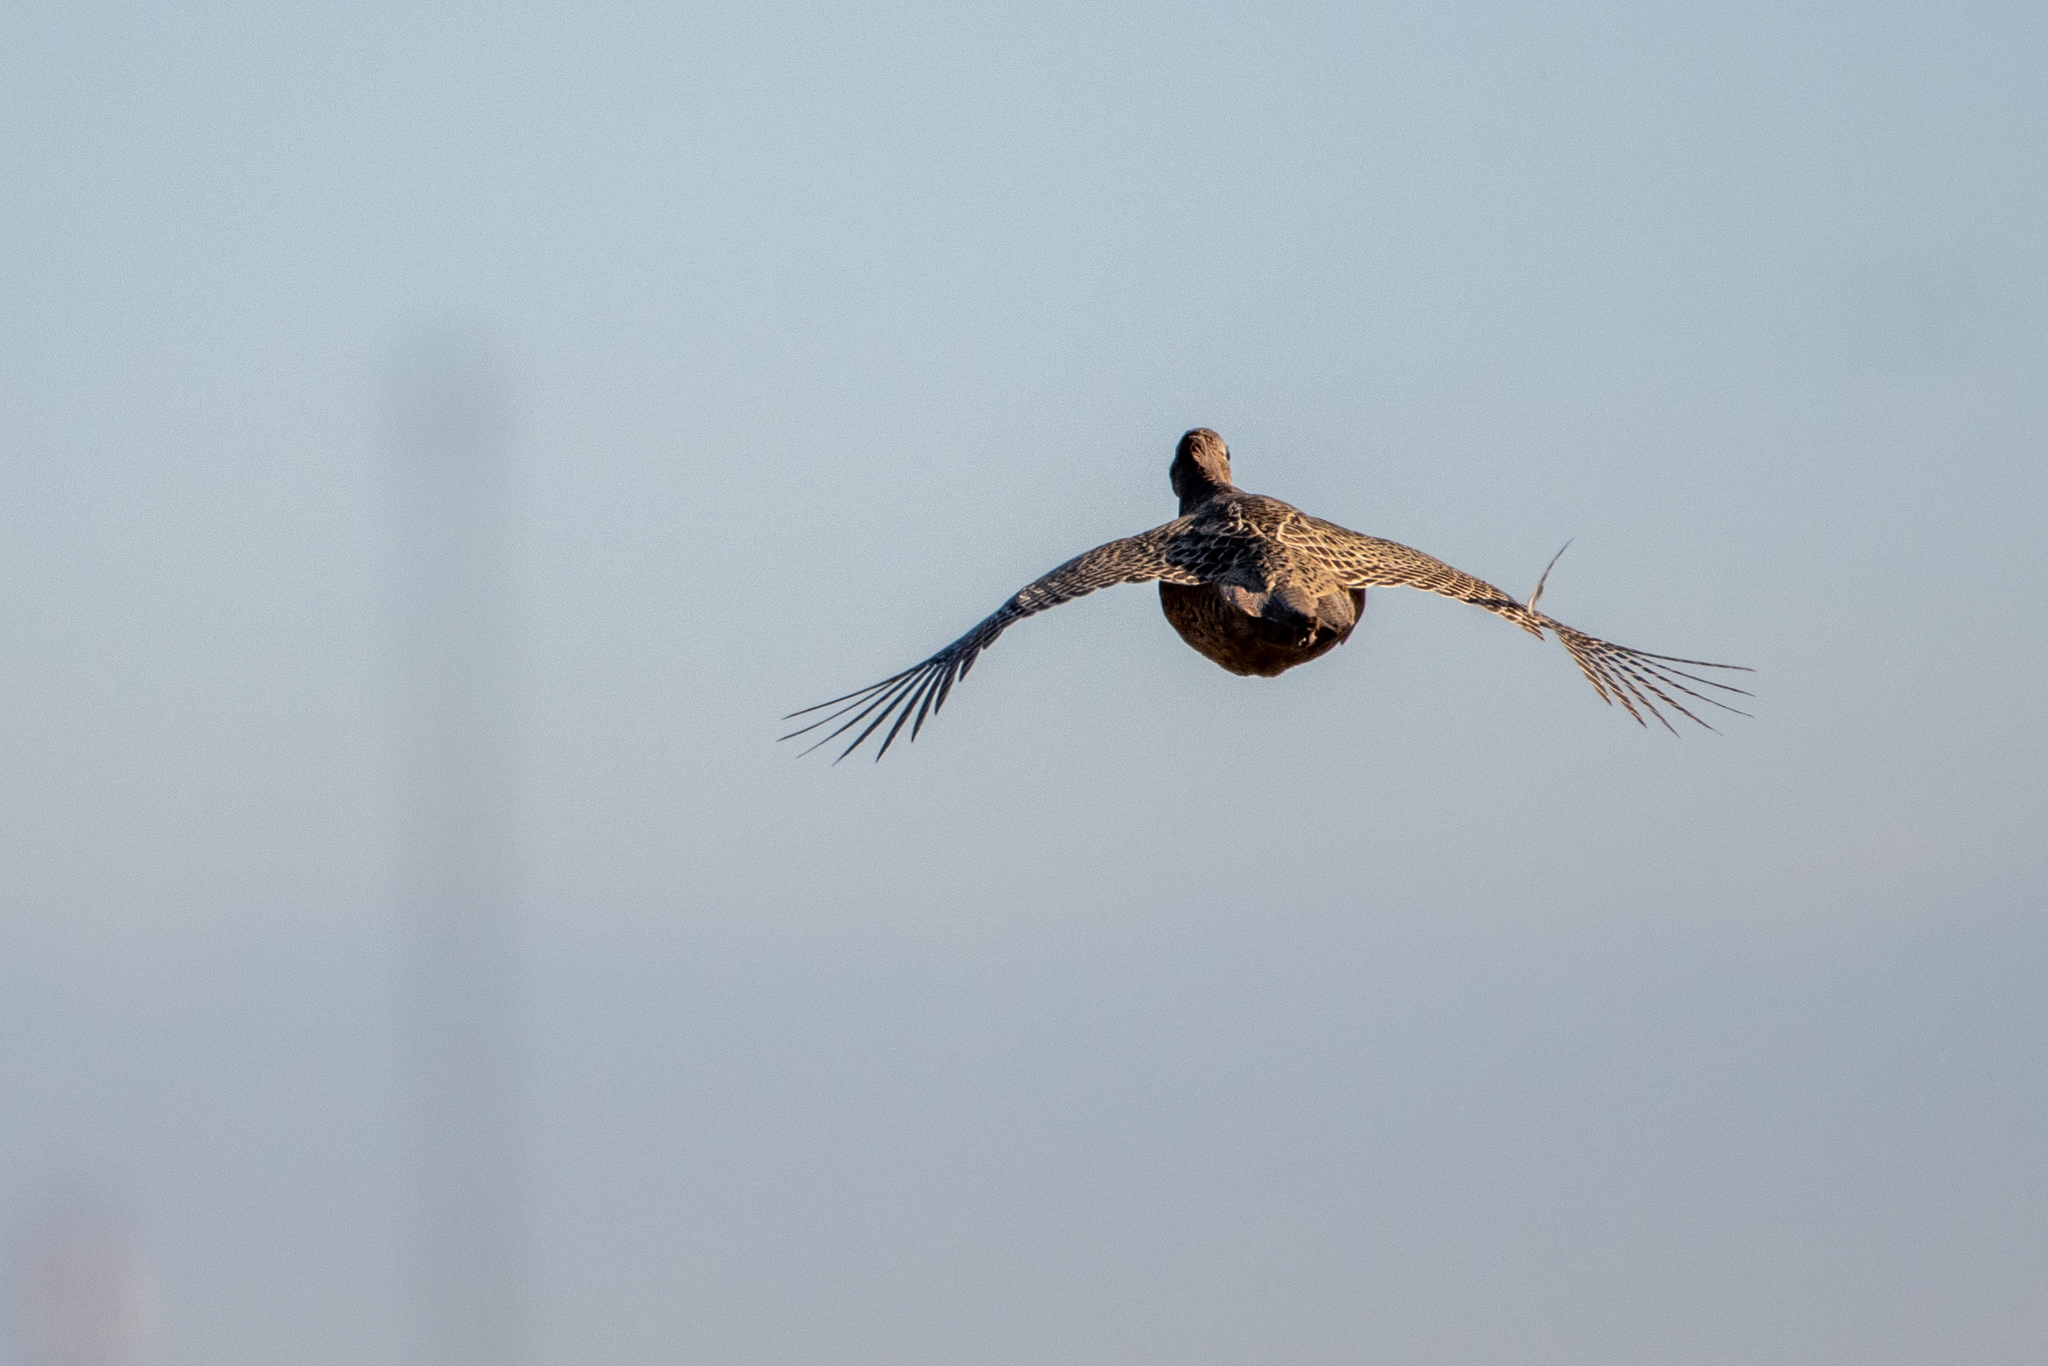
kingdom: Animalia
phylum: Chordata
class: Aves
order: Galliformes
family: Phasianidae
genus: Phasianus
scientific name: Phasianus colchicus
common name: Common pheasant
